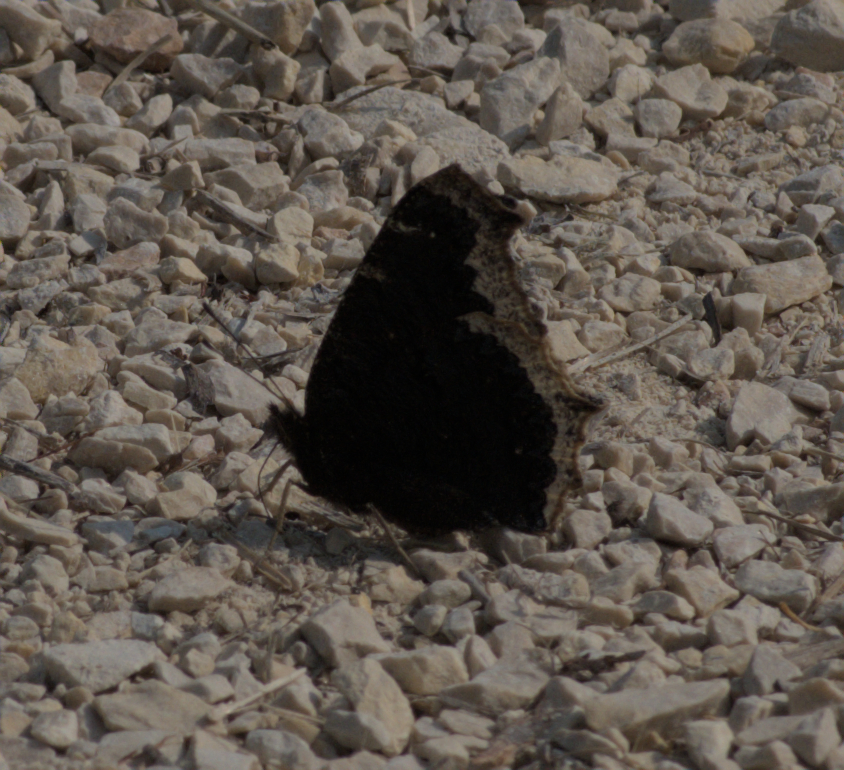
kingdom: Animalia
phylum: Arthropoda
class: Insecta
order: Lepidoptera
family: Nymphalidae
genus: Nymphalis
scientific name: Nymphalis antiopa
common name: Camberwell beauty
